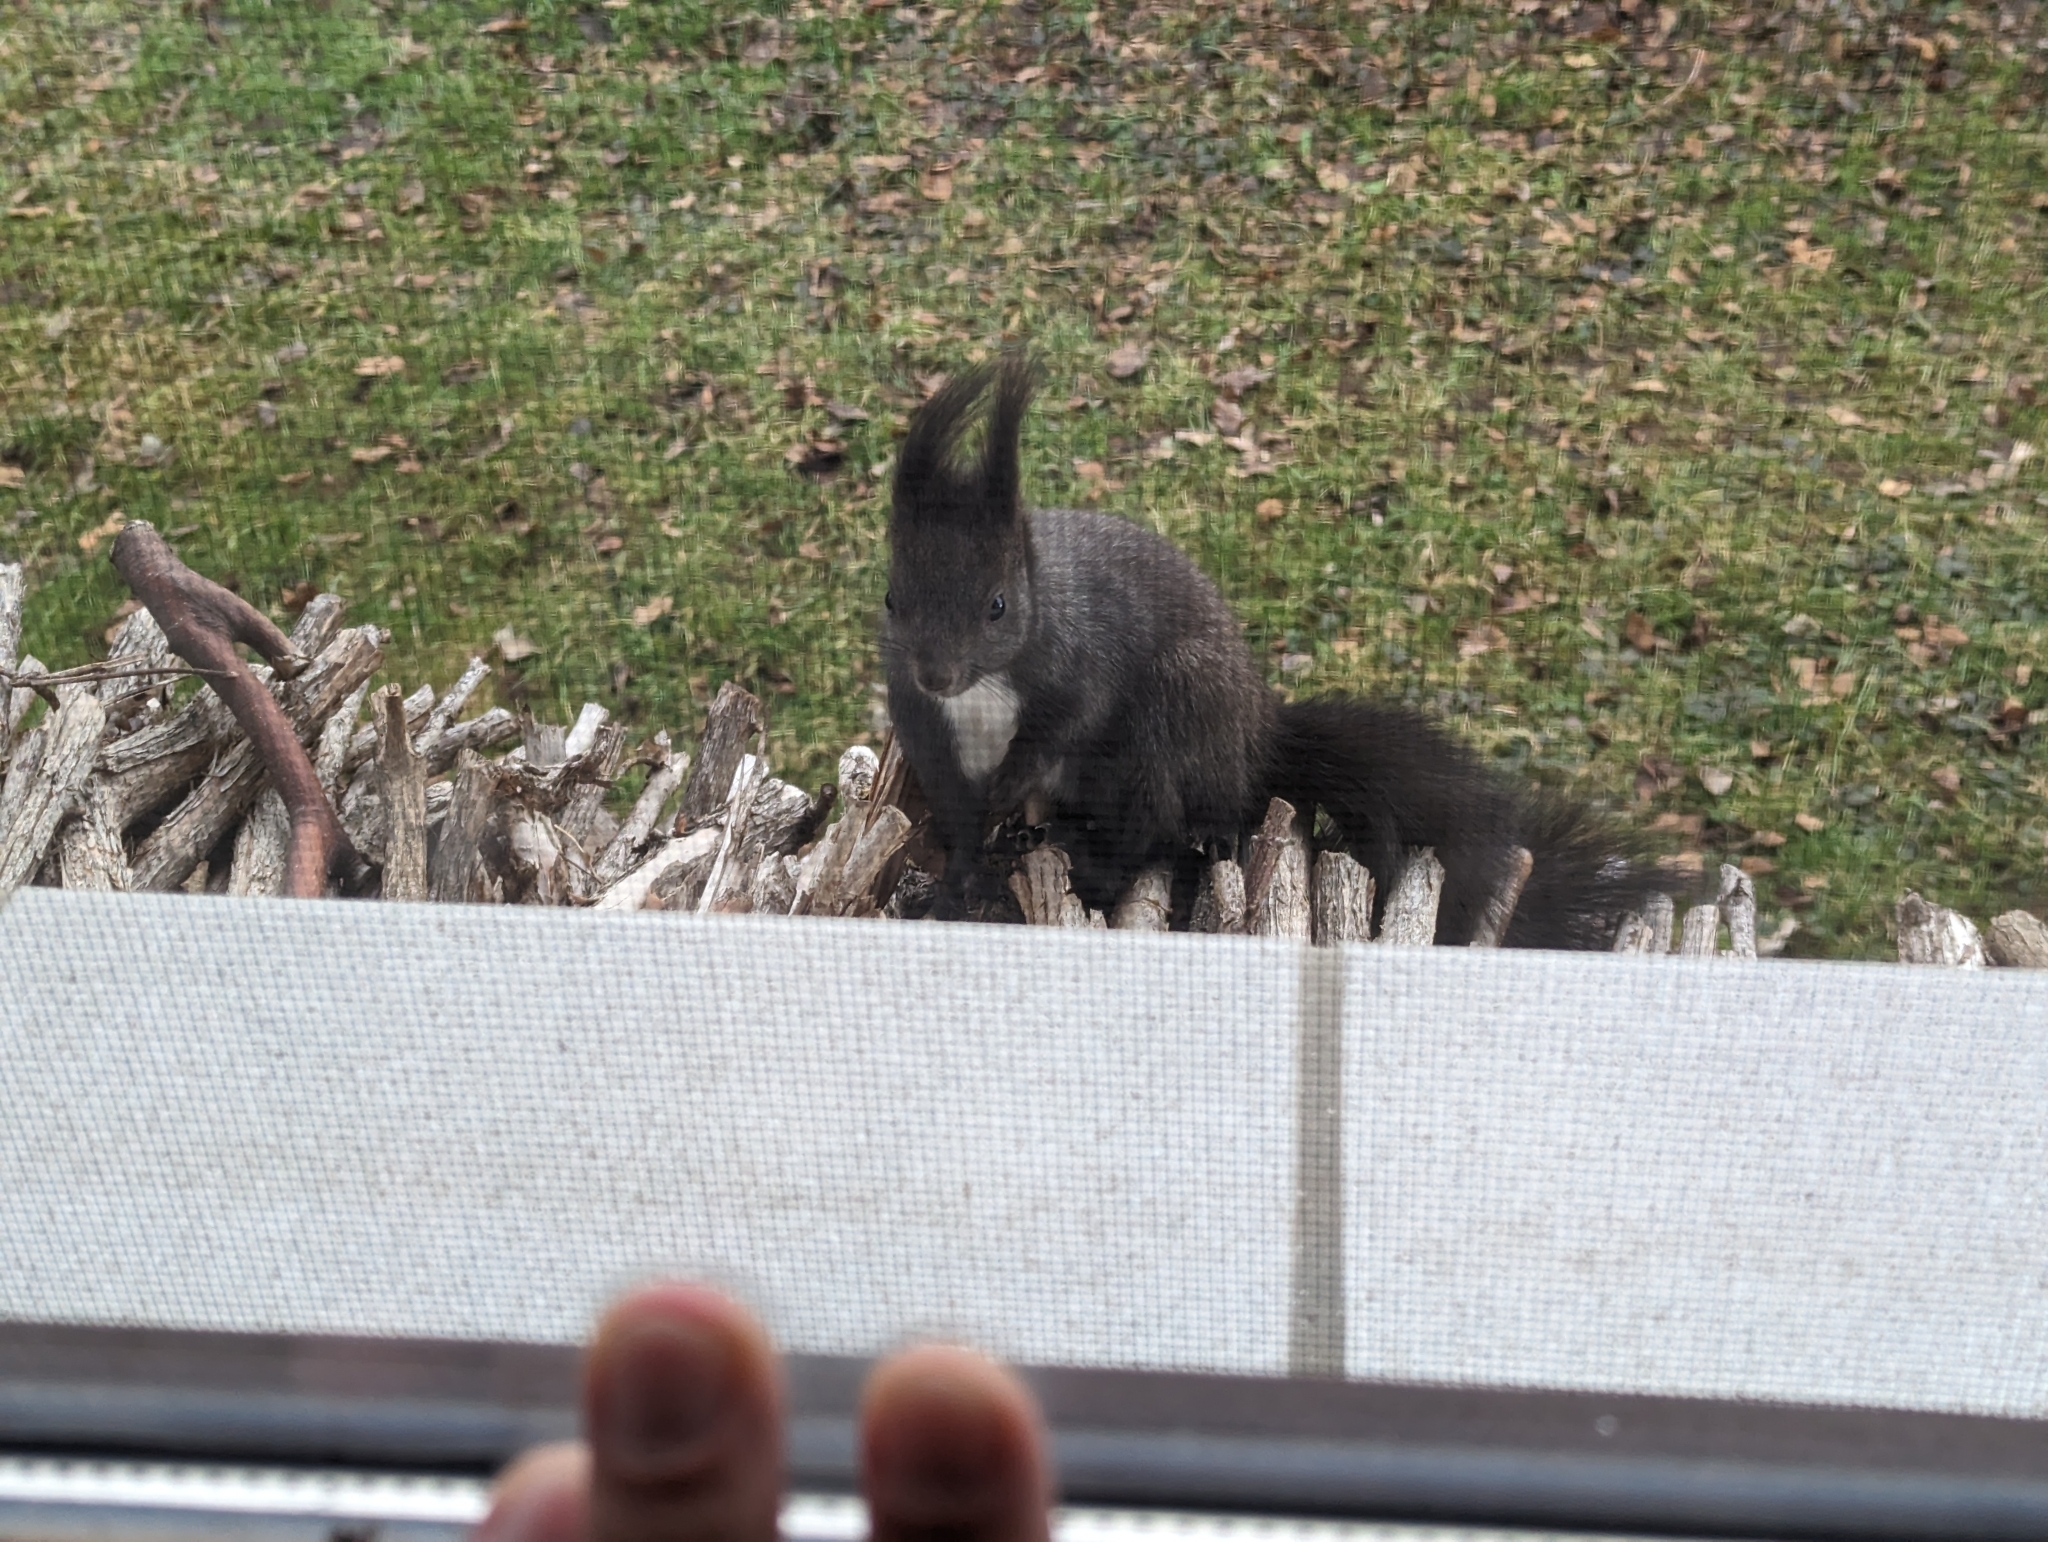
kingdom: Animalia
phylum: Chordata
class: Mammalia
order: Rodentia
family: Sciuridae
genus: Sciurus
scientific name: Sciurus vulgaris
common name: Eurasian red squirrel
